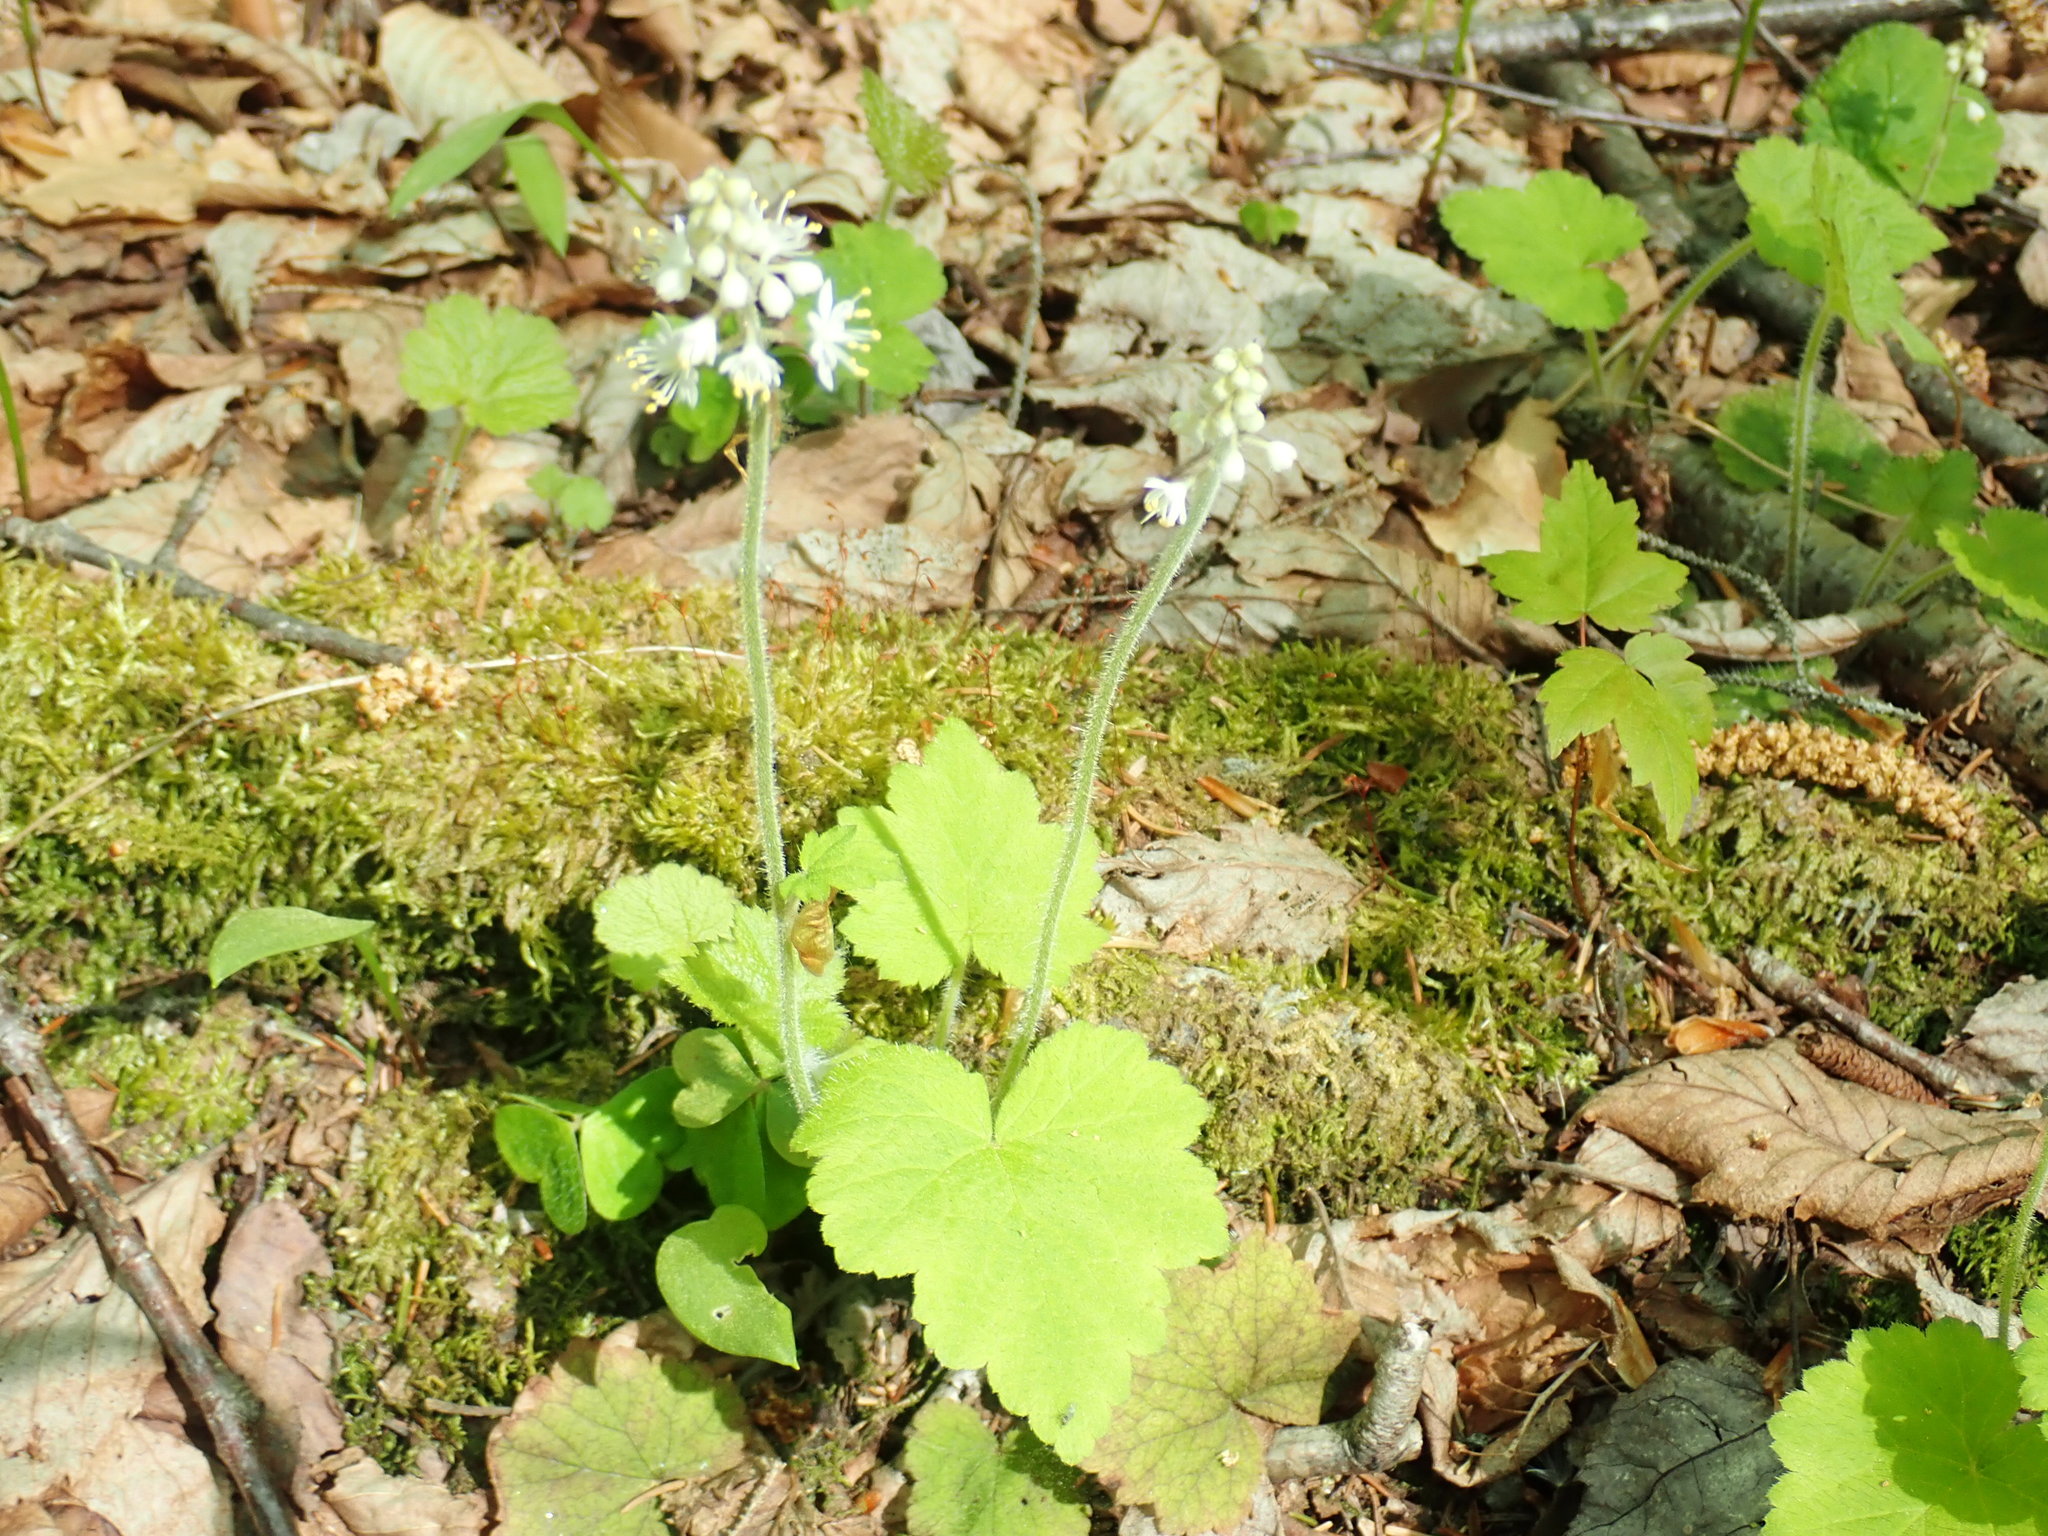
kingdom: Plantae
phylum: Tracheophyta
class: Magnoliopsida
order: Saxifragales
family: Saxifragaceae
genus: Tiarella
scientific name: Tiarella stolonifera
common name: Stoloniferous foamflower
